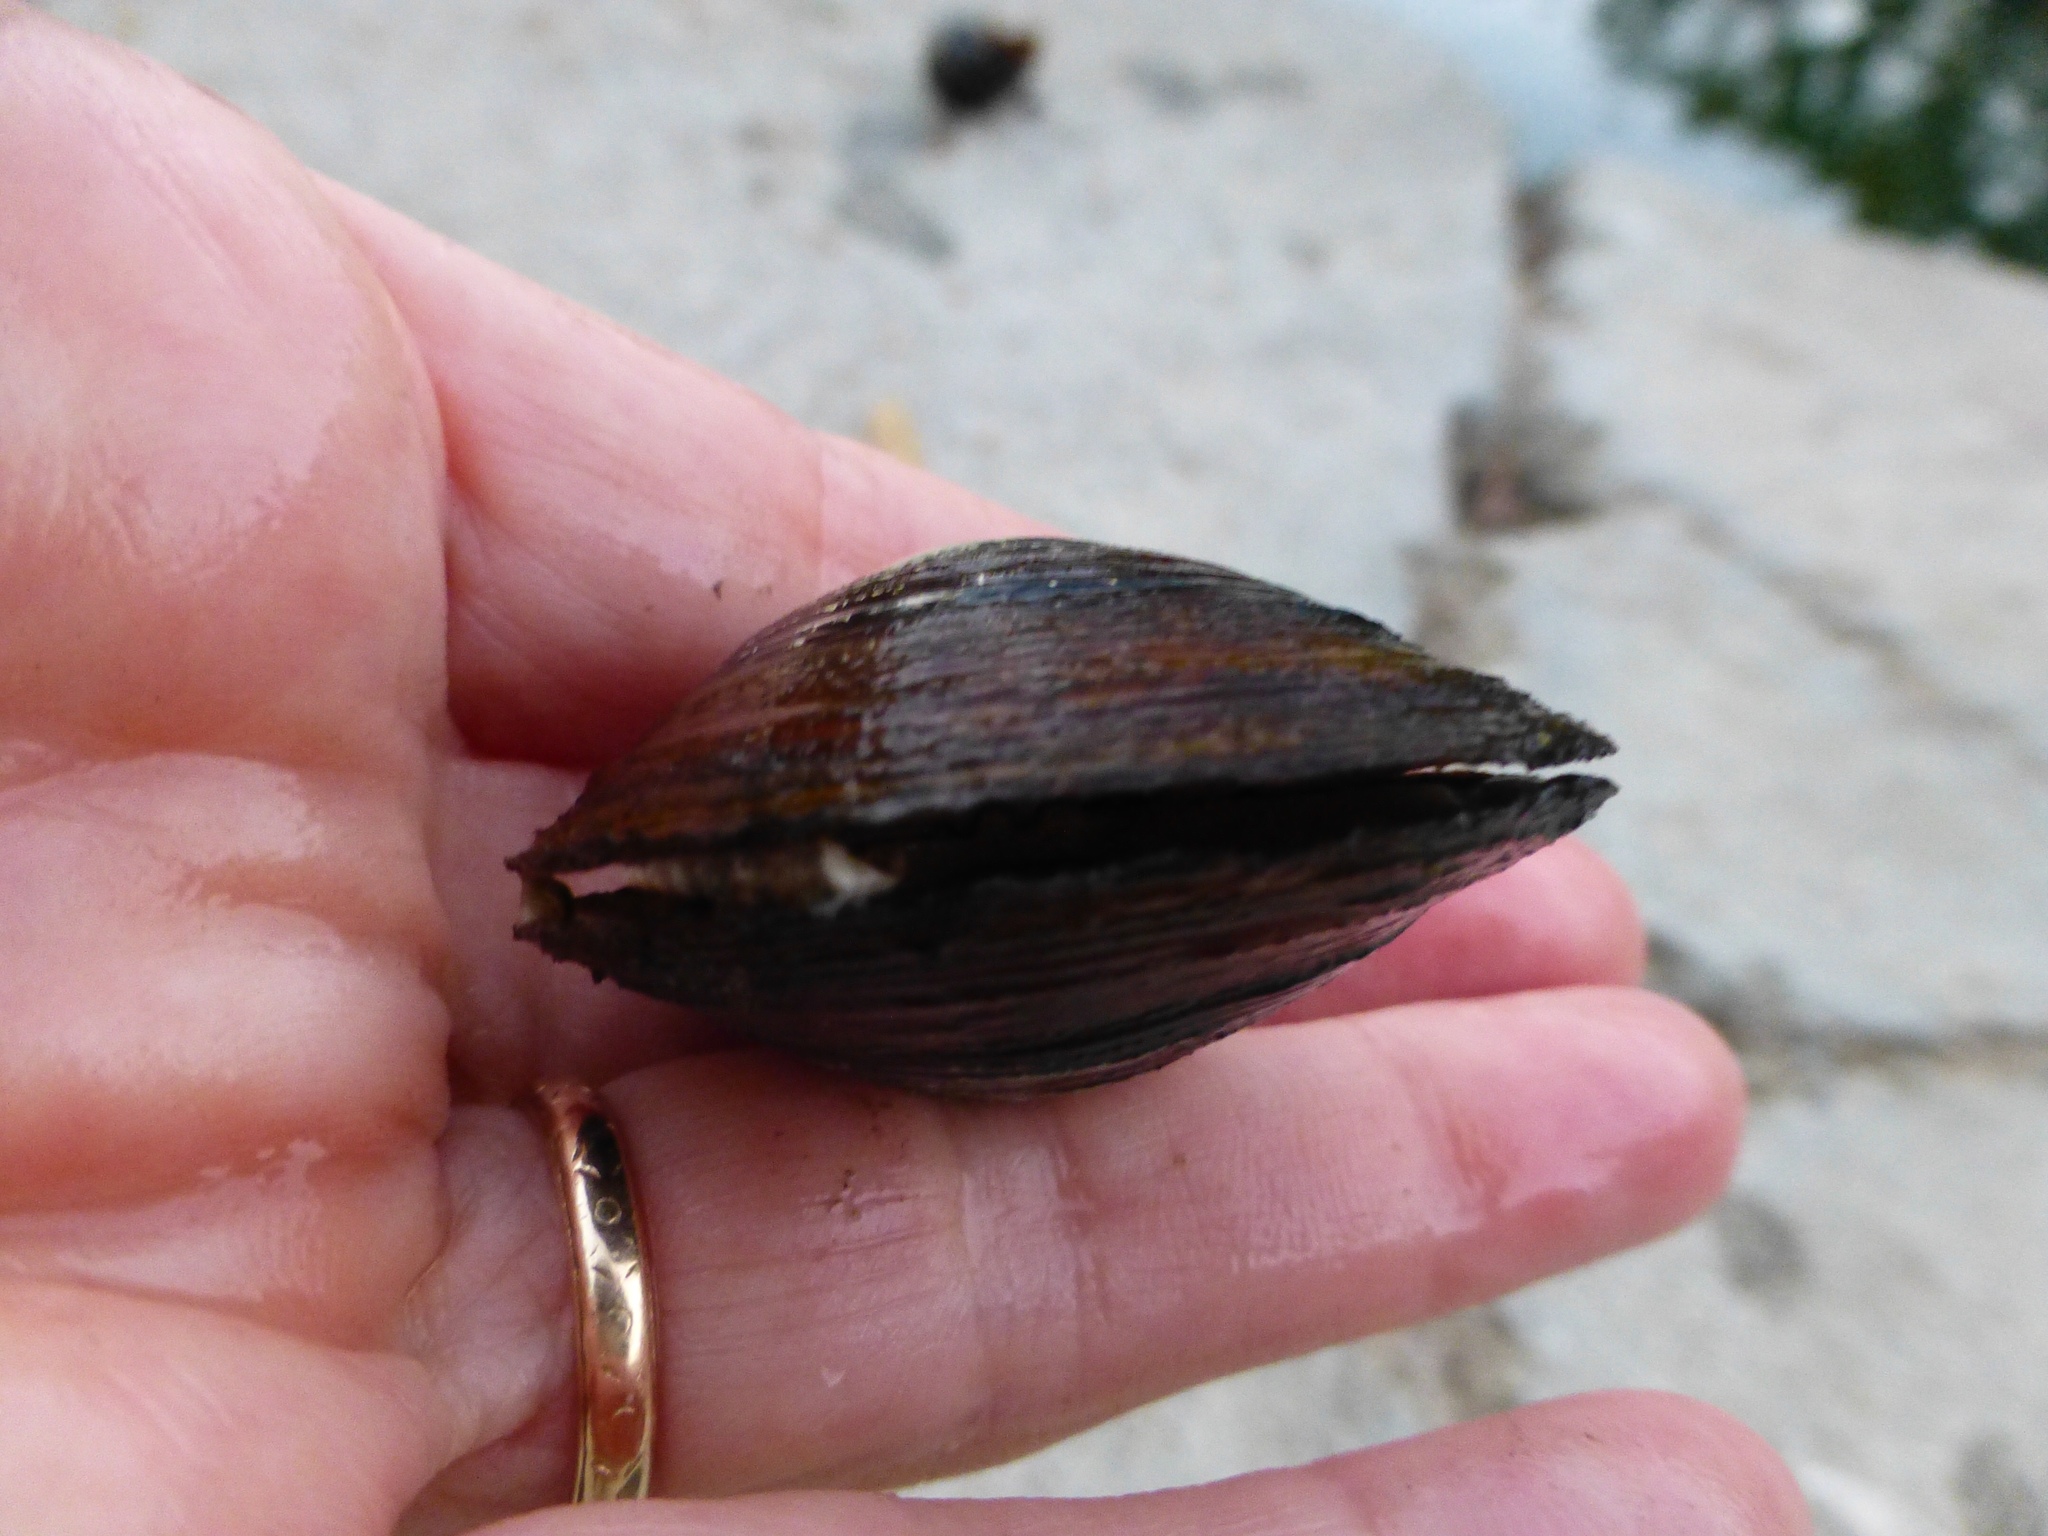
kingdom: Animalia
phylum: Mollusca
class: Bivalvia
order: Venerida
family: Cyrenidae
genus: Corbicula
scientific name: Corbicula fluminea
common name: Asian clam
